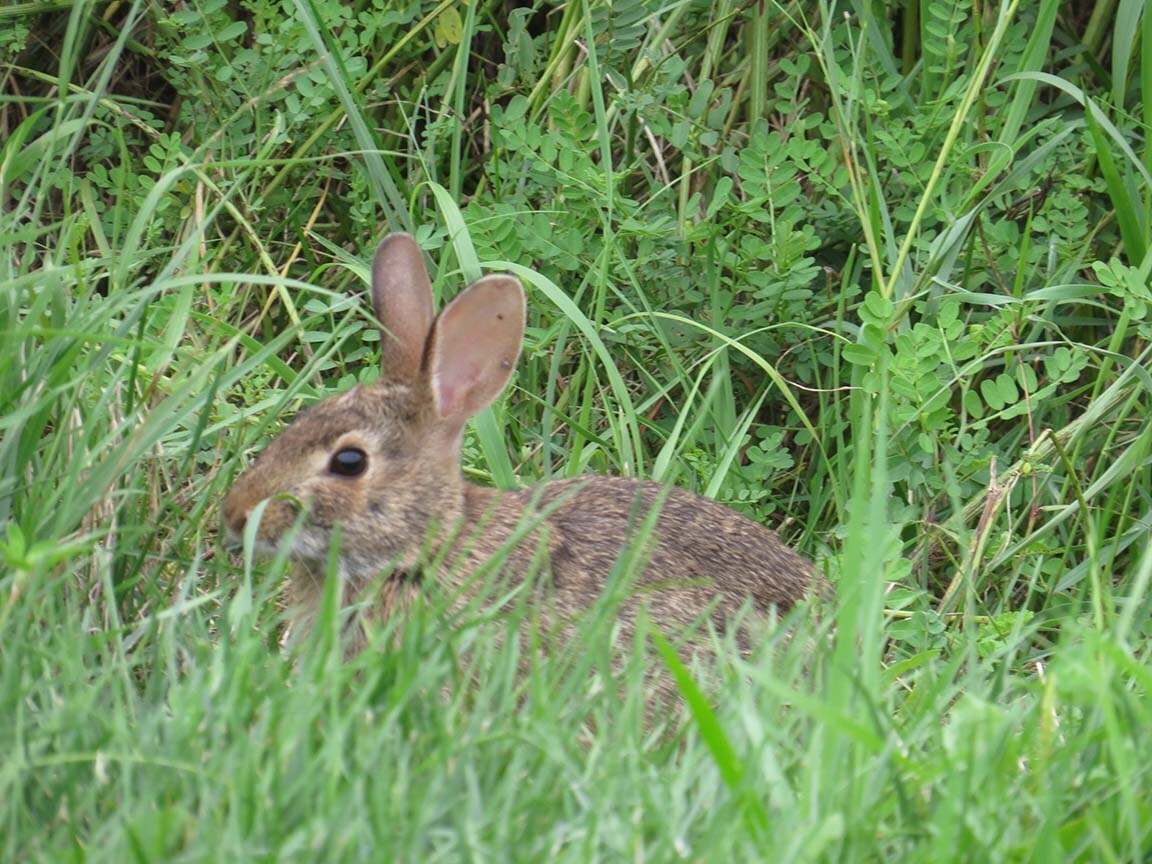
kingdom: Animalia
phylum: Chordata
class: Mammalia
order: Lagomorpha
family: Leporidae
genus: Sylvilagus
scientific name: Sylvilagus floridanus
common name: Eastern cottontail
